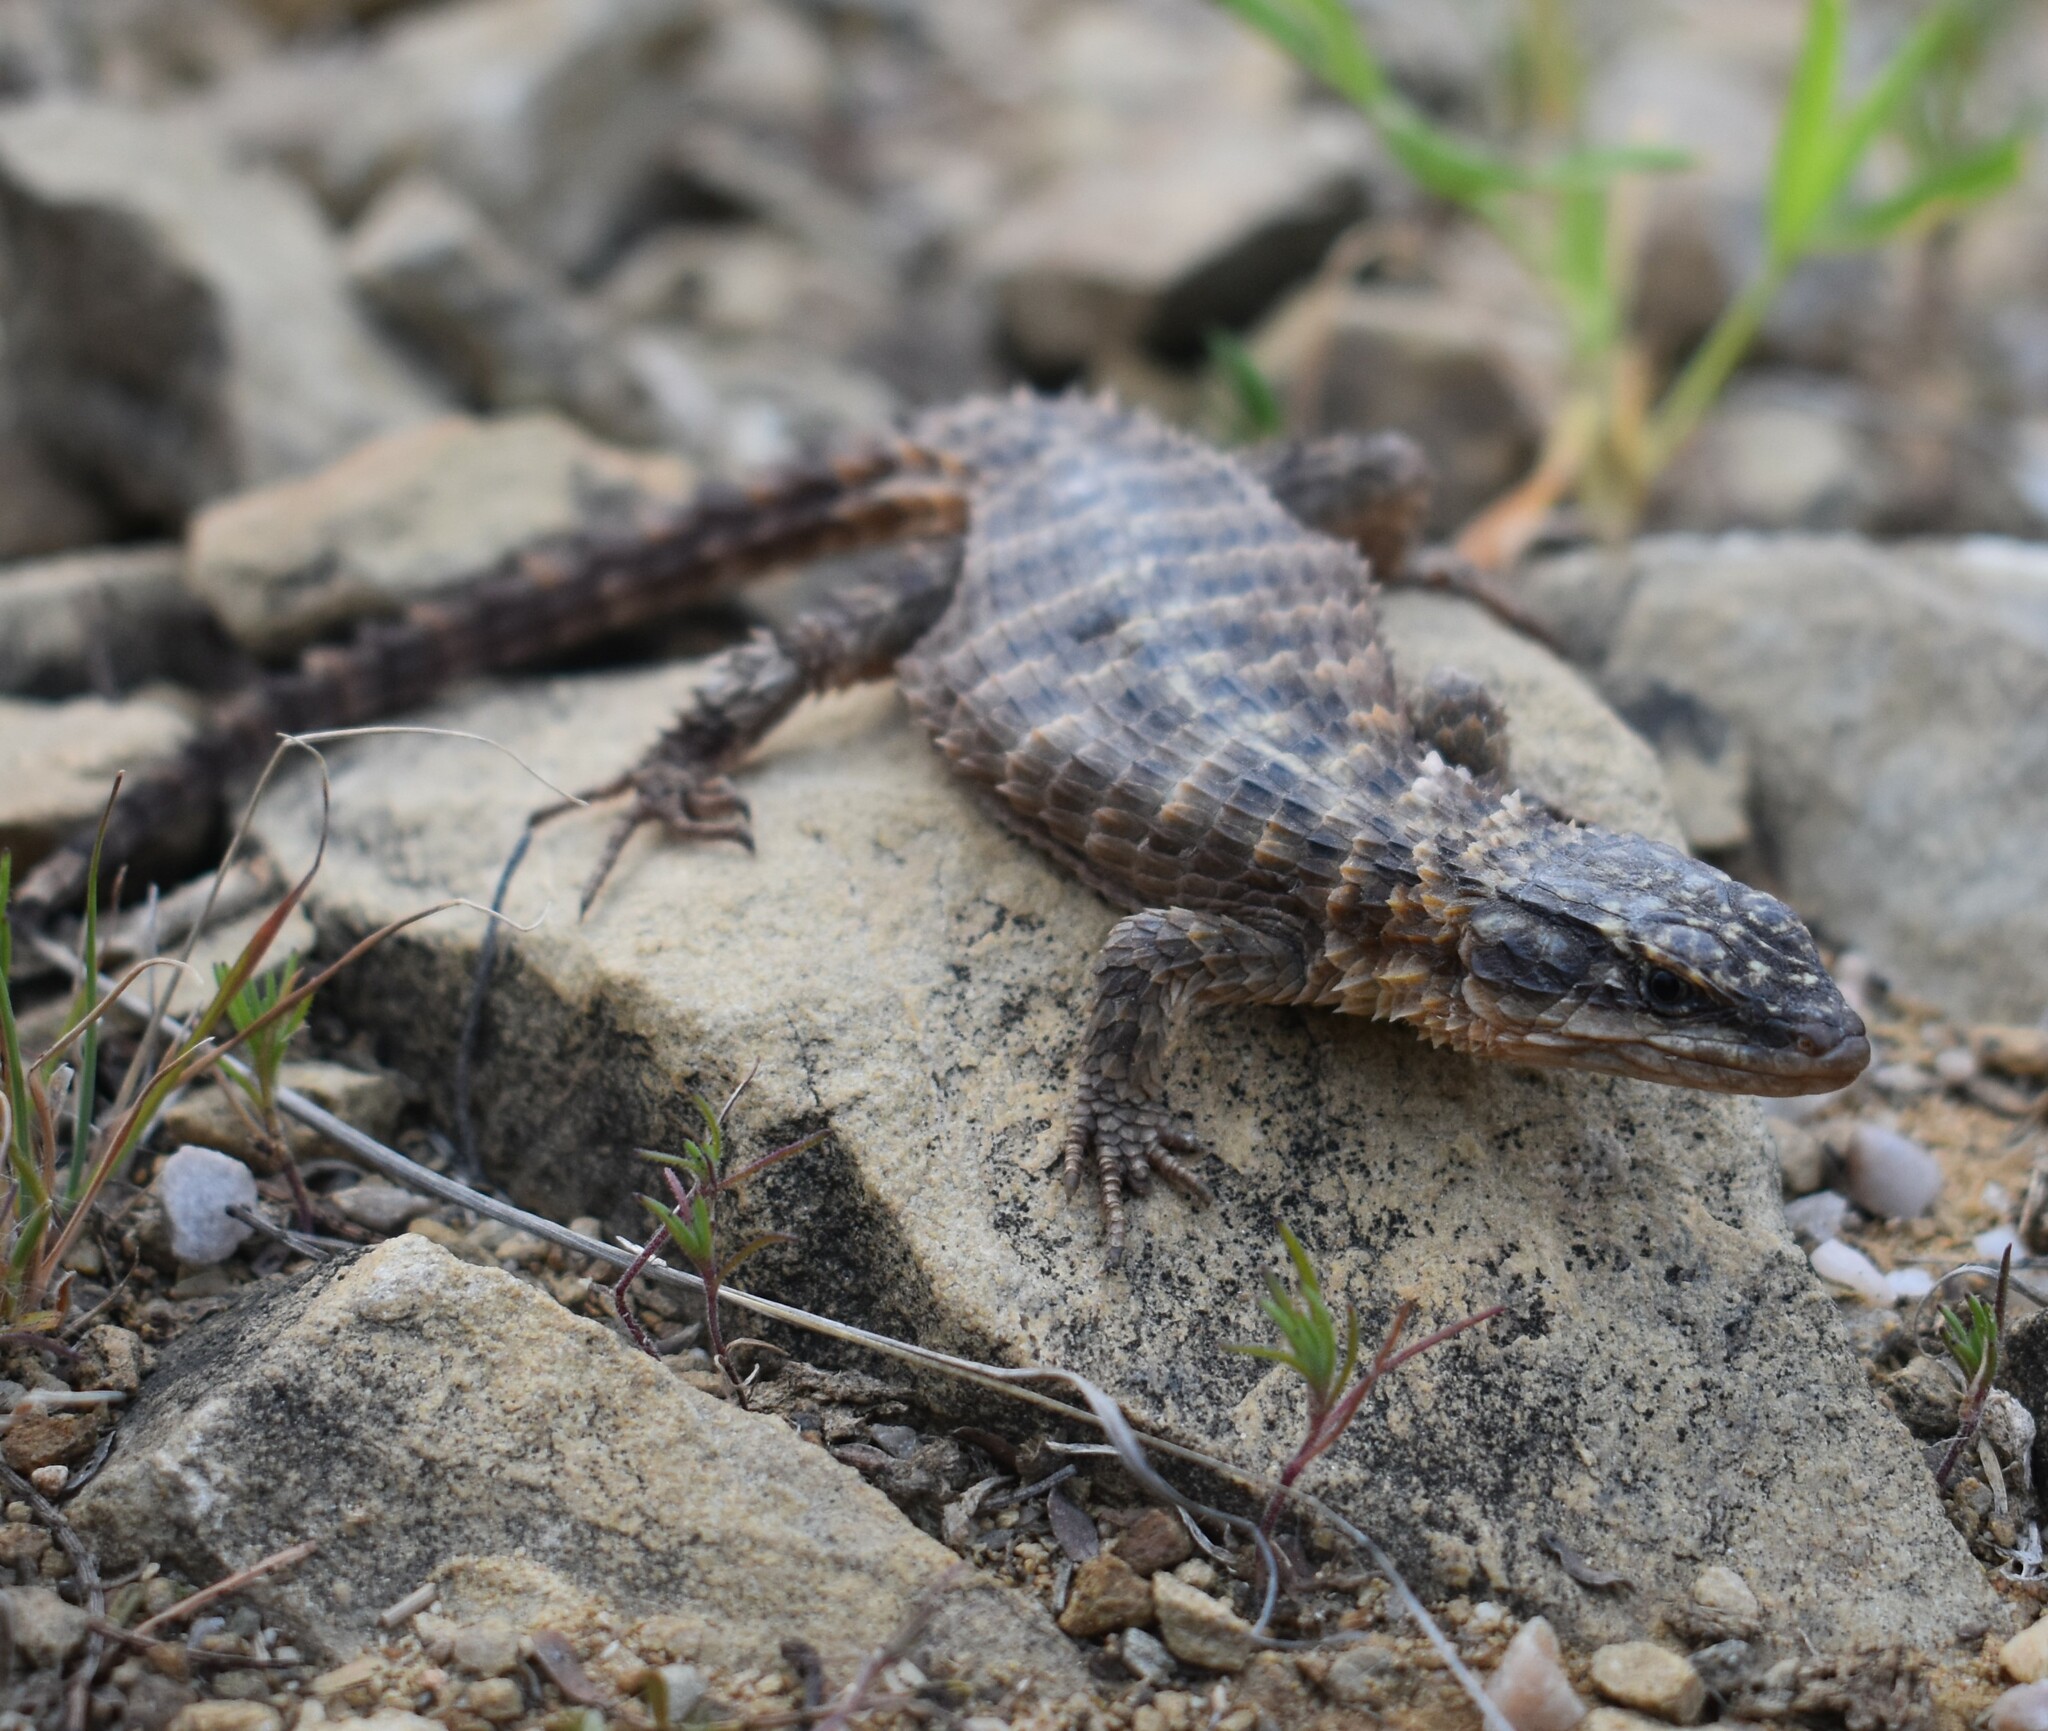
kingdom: Animalia
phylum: Chordata
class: Squamata
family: Cordylidae
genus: Cordylus
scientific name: Cordylus cordylus
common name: Cape girdled lizard
